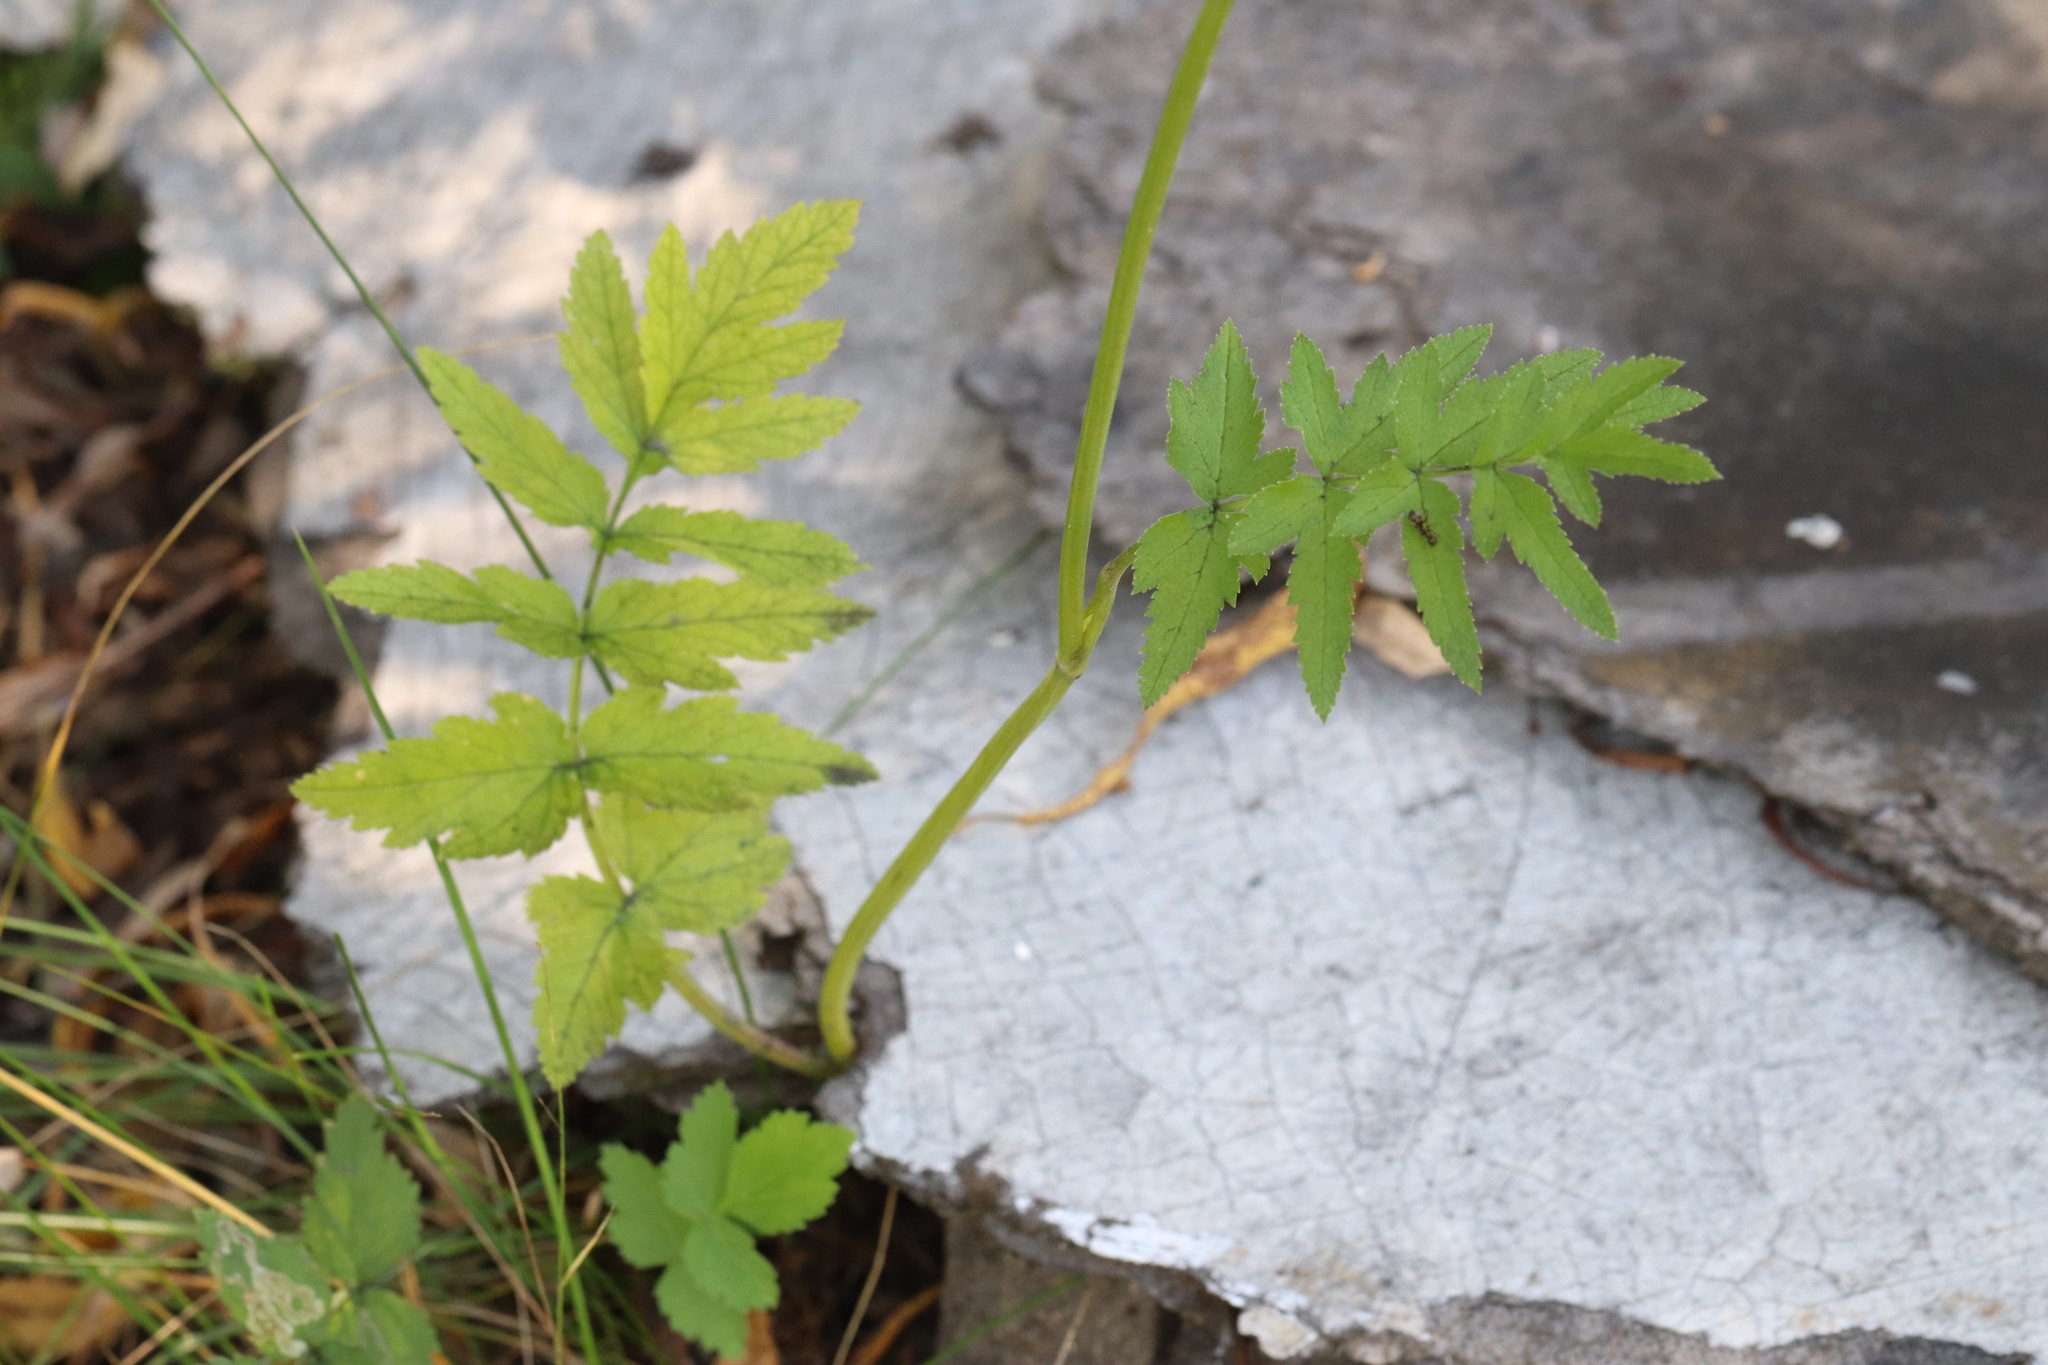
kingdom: Plantae
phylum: Tracheophyta
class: Magnoliopsida
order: Apiales
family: Apiaceae
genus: Pastinaca
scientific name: Pastinaca sativa
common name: Wild parsnip
